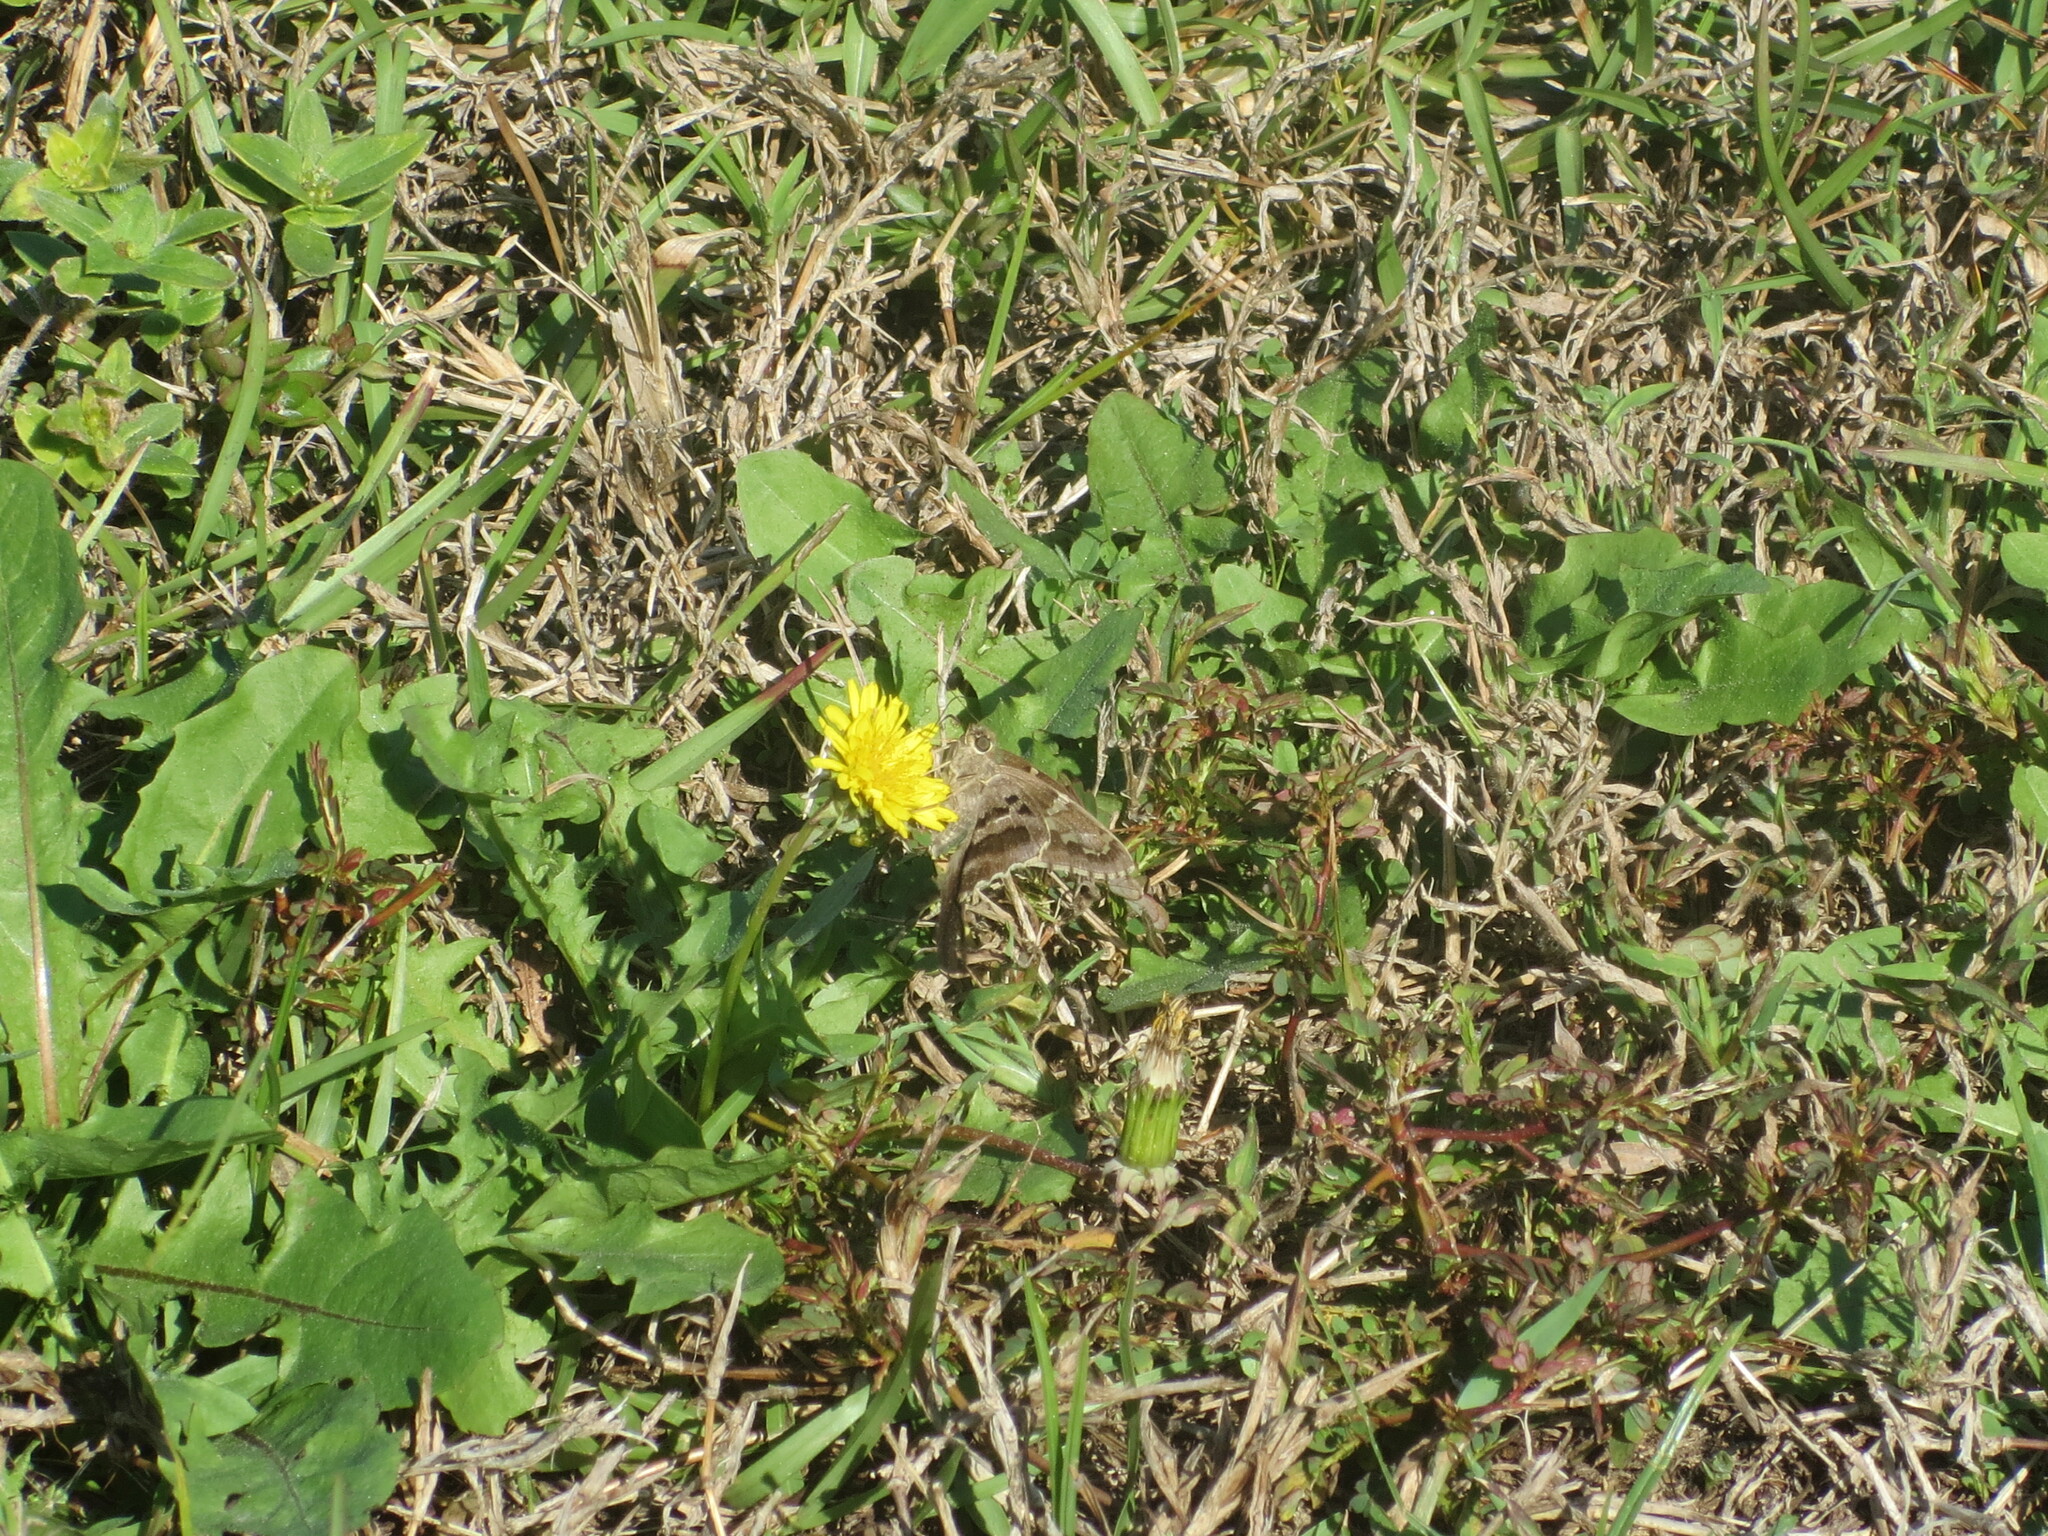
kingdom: Animalia
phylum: Arthropoda
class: Insecta
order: Lepidoptera
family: Hesperiidae
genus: Urbanus
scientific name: Urbanus proteus
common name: Long-tailed skipper
